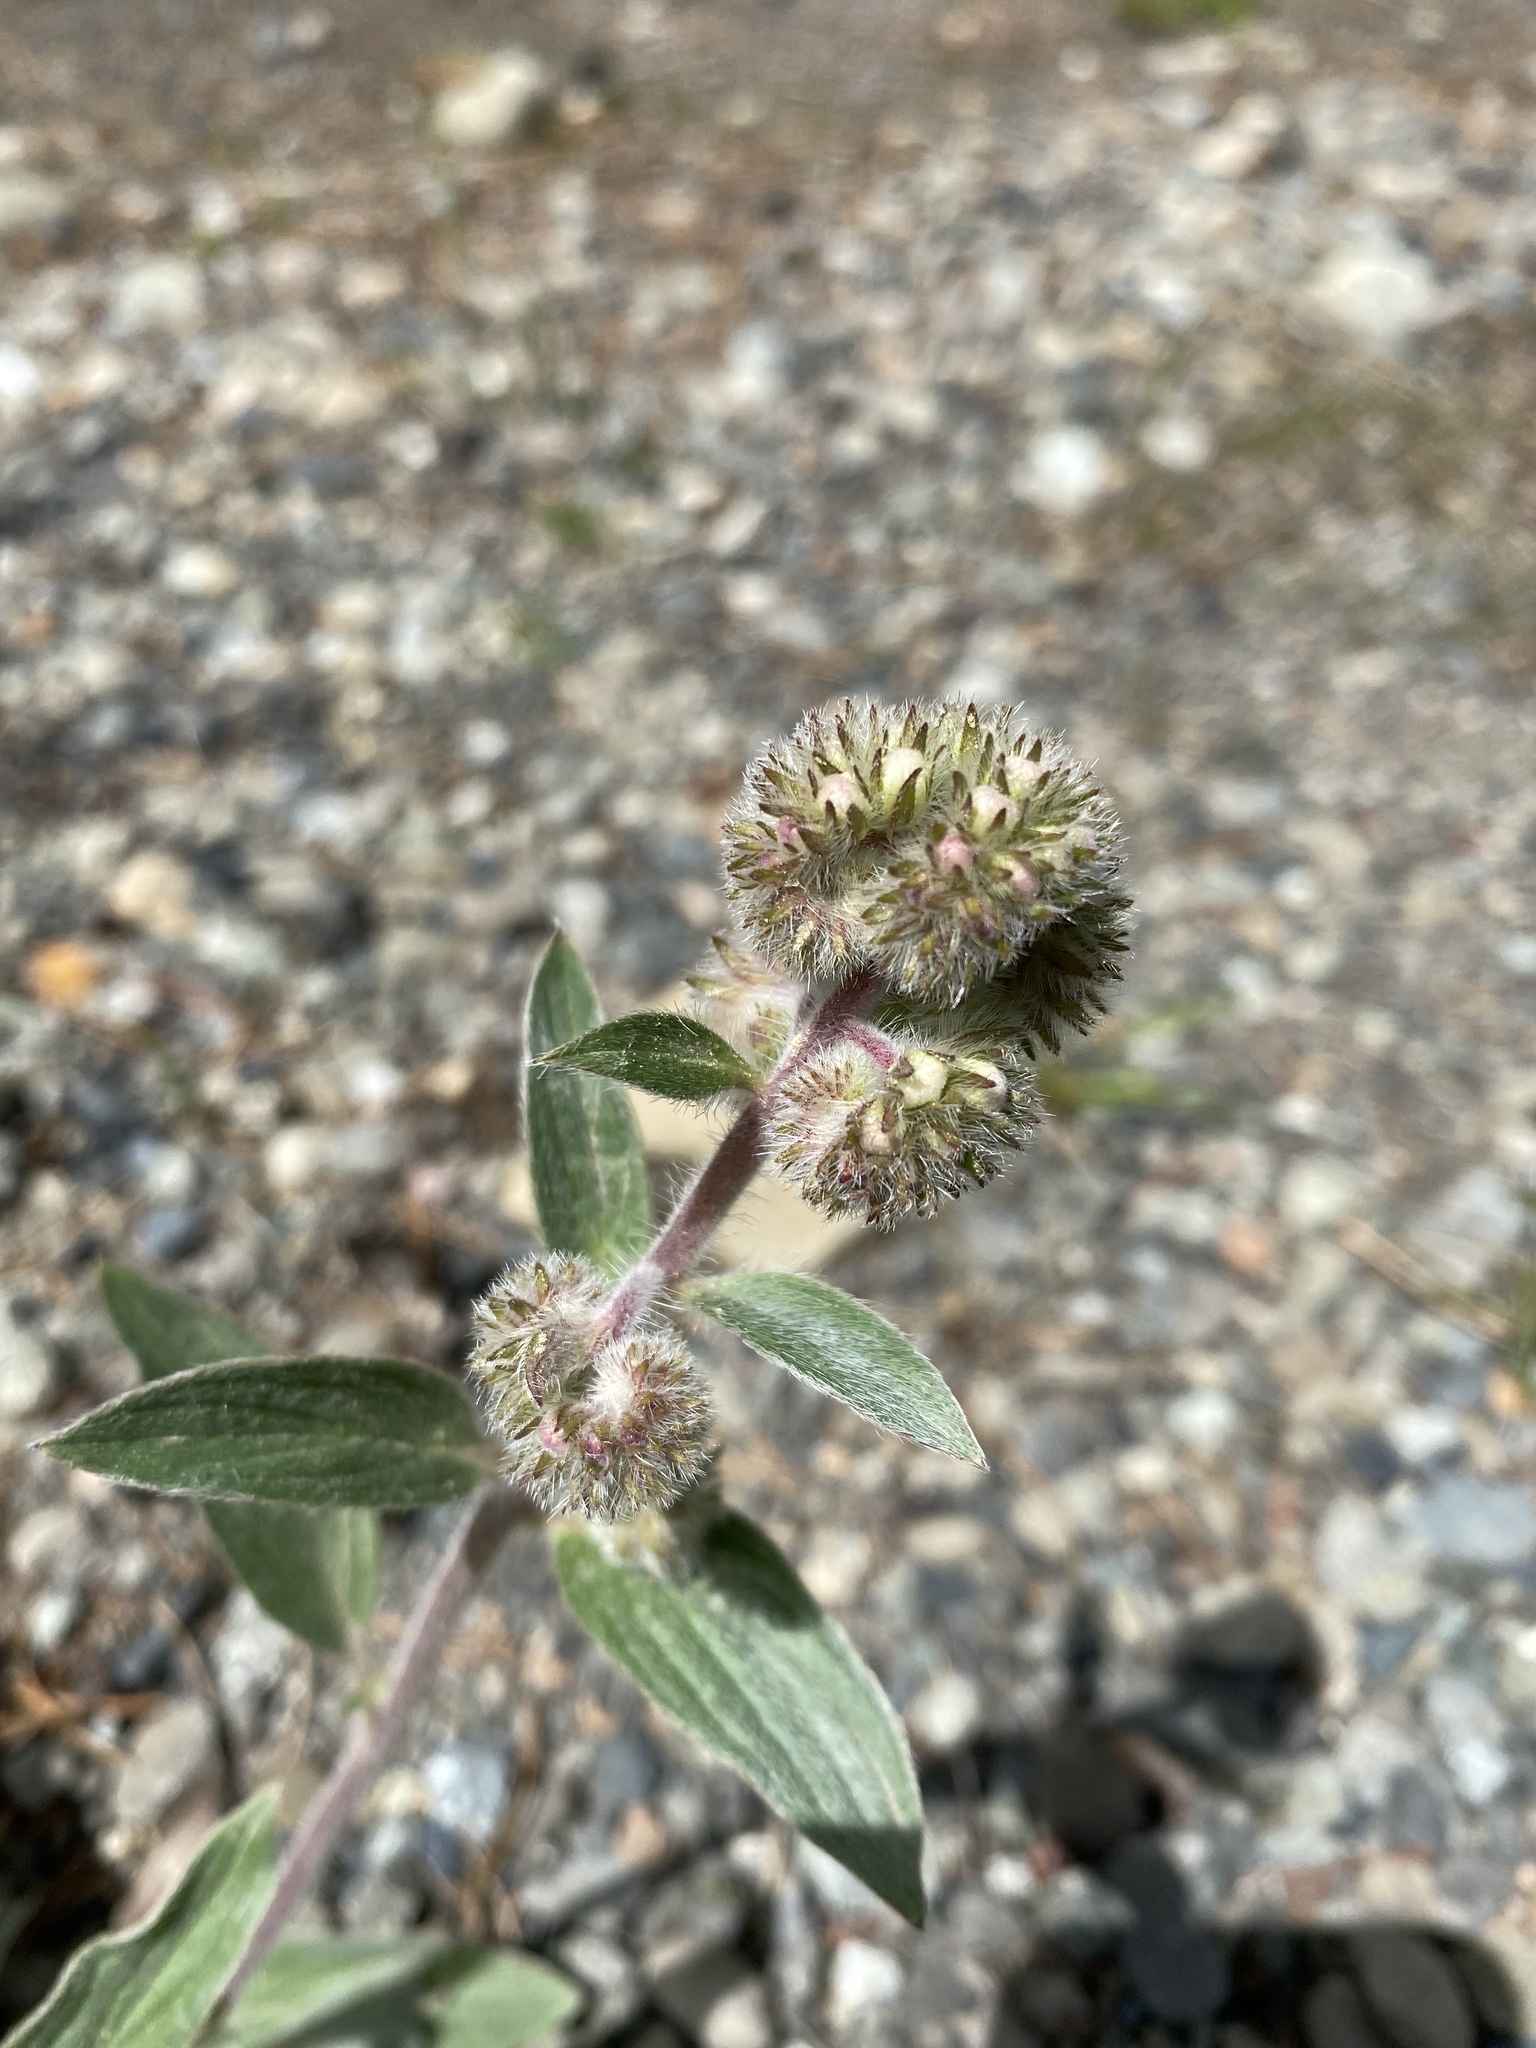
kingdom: Plantae
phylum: Tracheophyta
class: Magnoliopsida
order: Boraginales
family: Hydrophyllaceae
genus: Phacelia
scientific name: Phacelia hastata
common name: Silver-leaved phacelia
